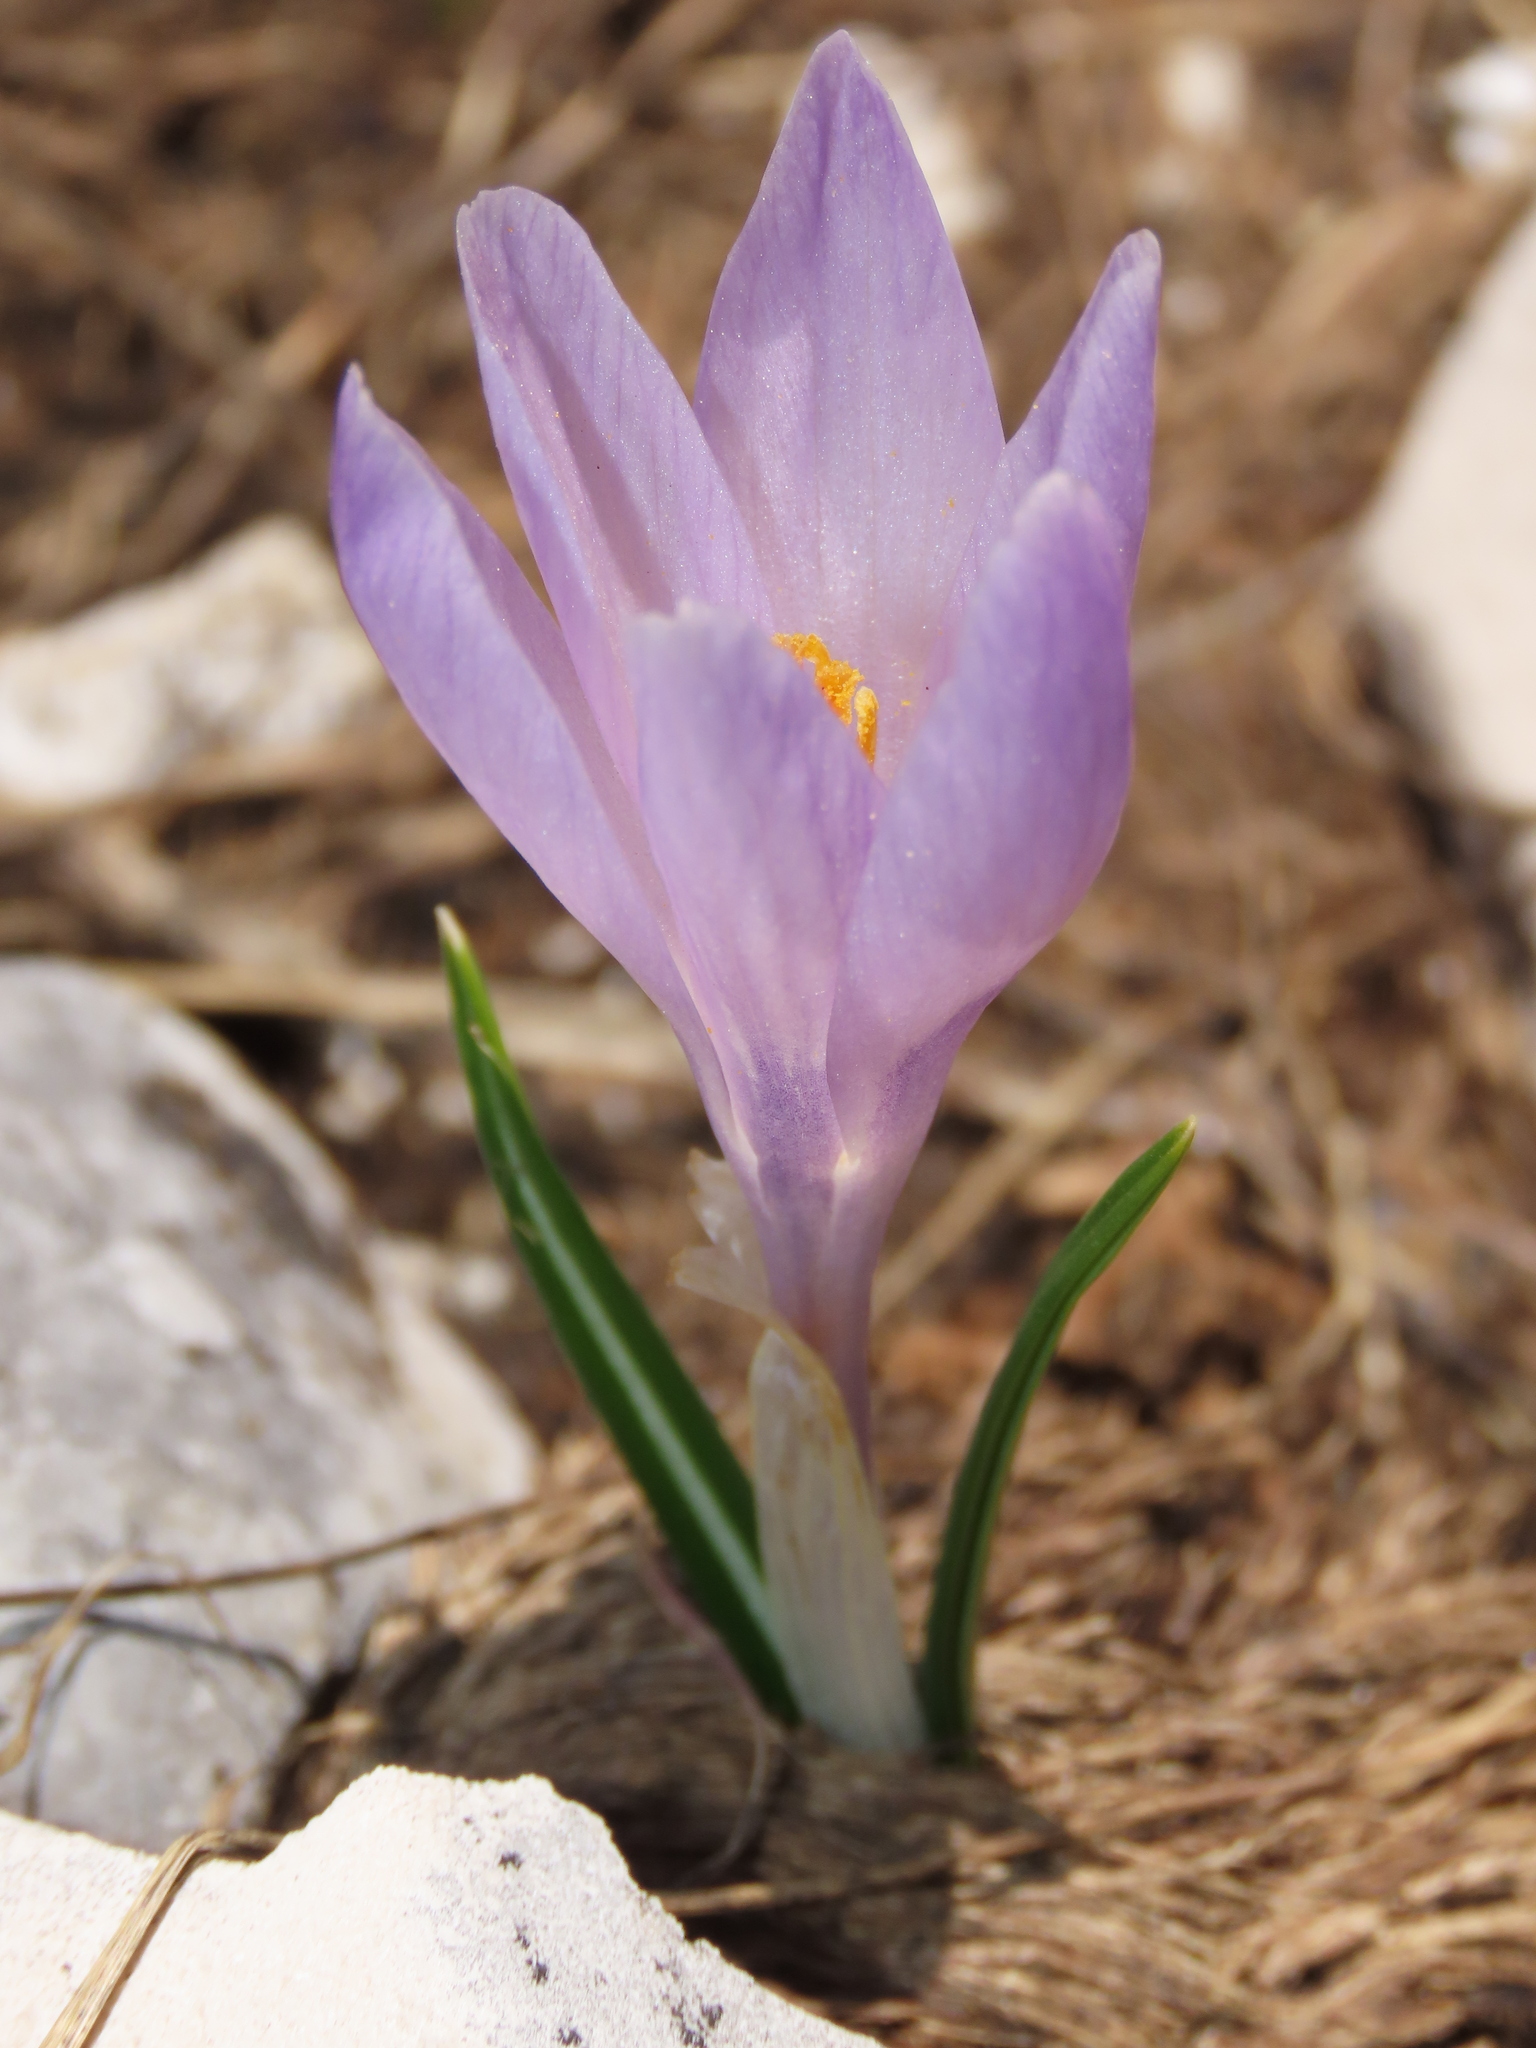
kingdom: Plantae
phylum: Tracheophyta
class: Liliopsida
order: Asparagales
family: Iridaceae
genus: Crocus
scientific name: Crocus neapolitanus
